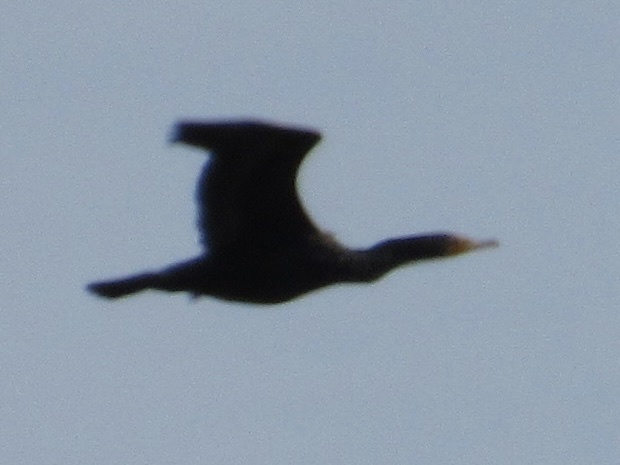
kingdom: Animalia
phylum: Chordata
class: Aves
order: Suliformes
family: Phalacrocoracidae
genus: Phalacrocorax
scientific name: Phalacrocorax auritus
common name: Double-crested cormorant
